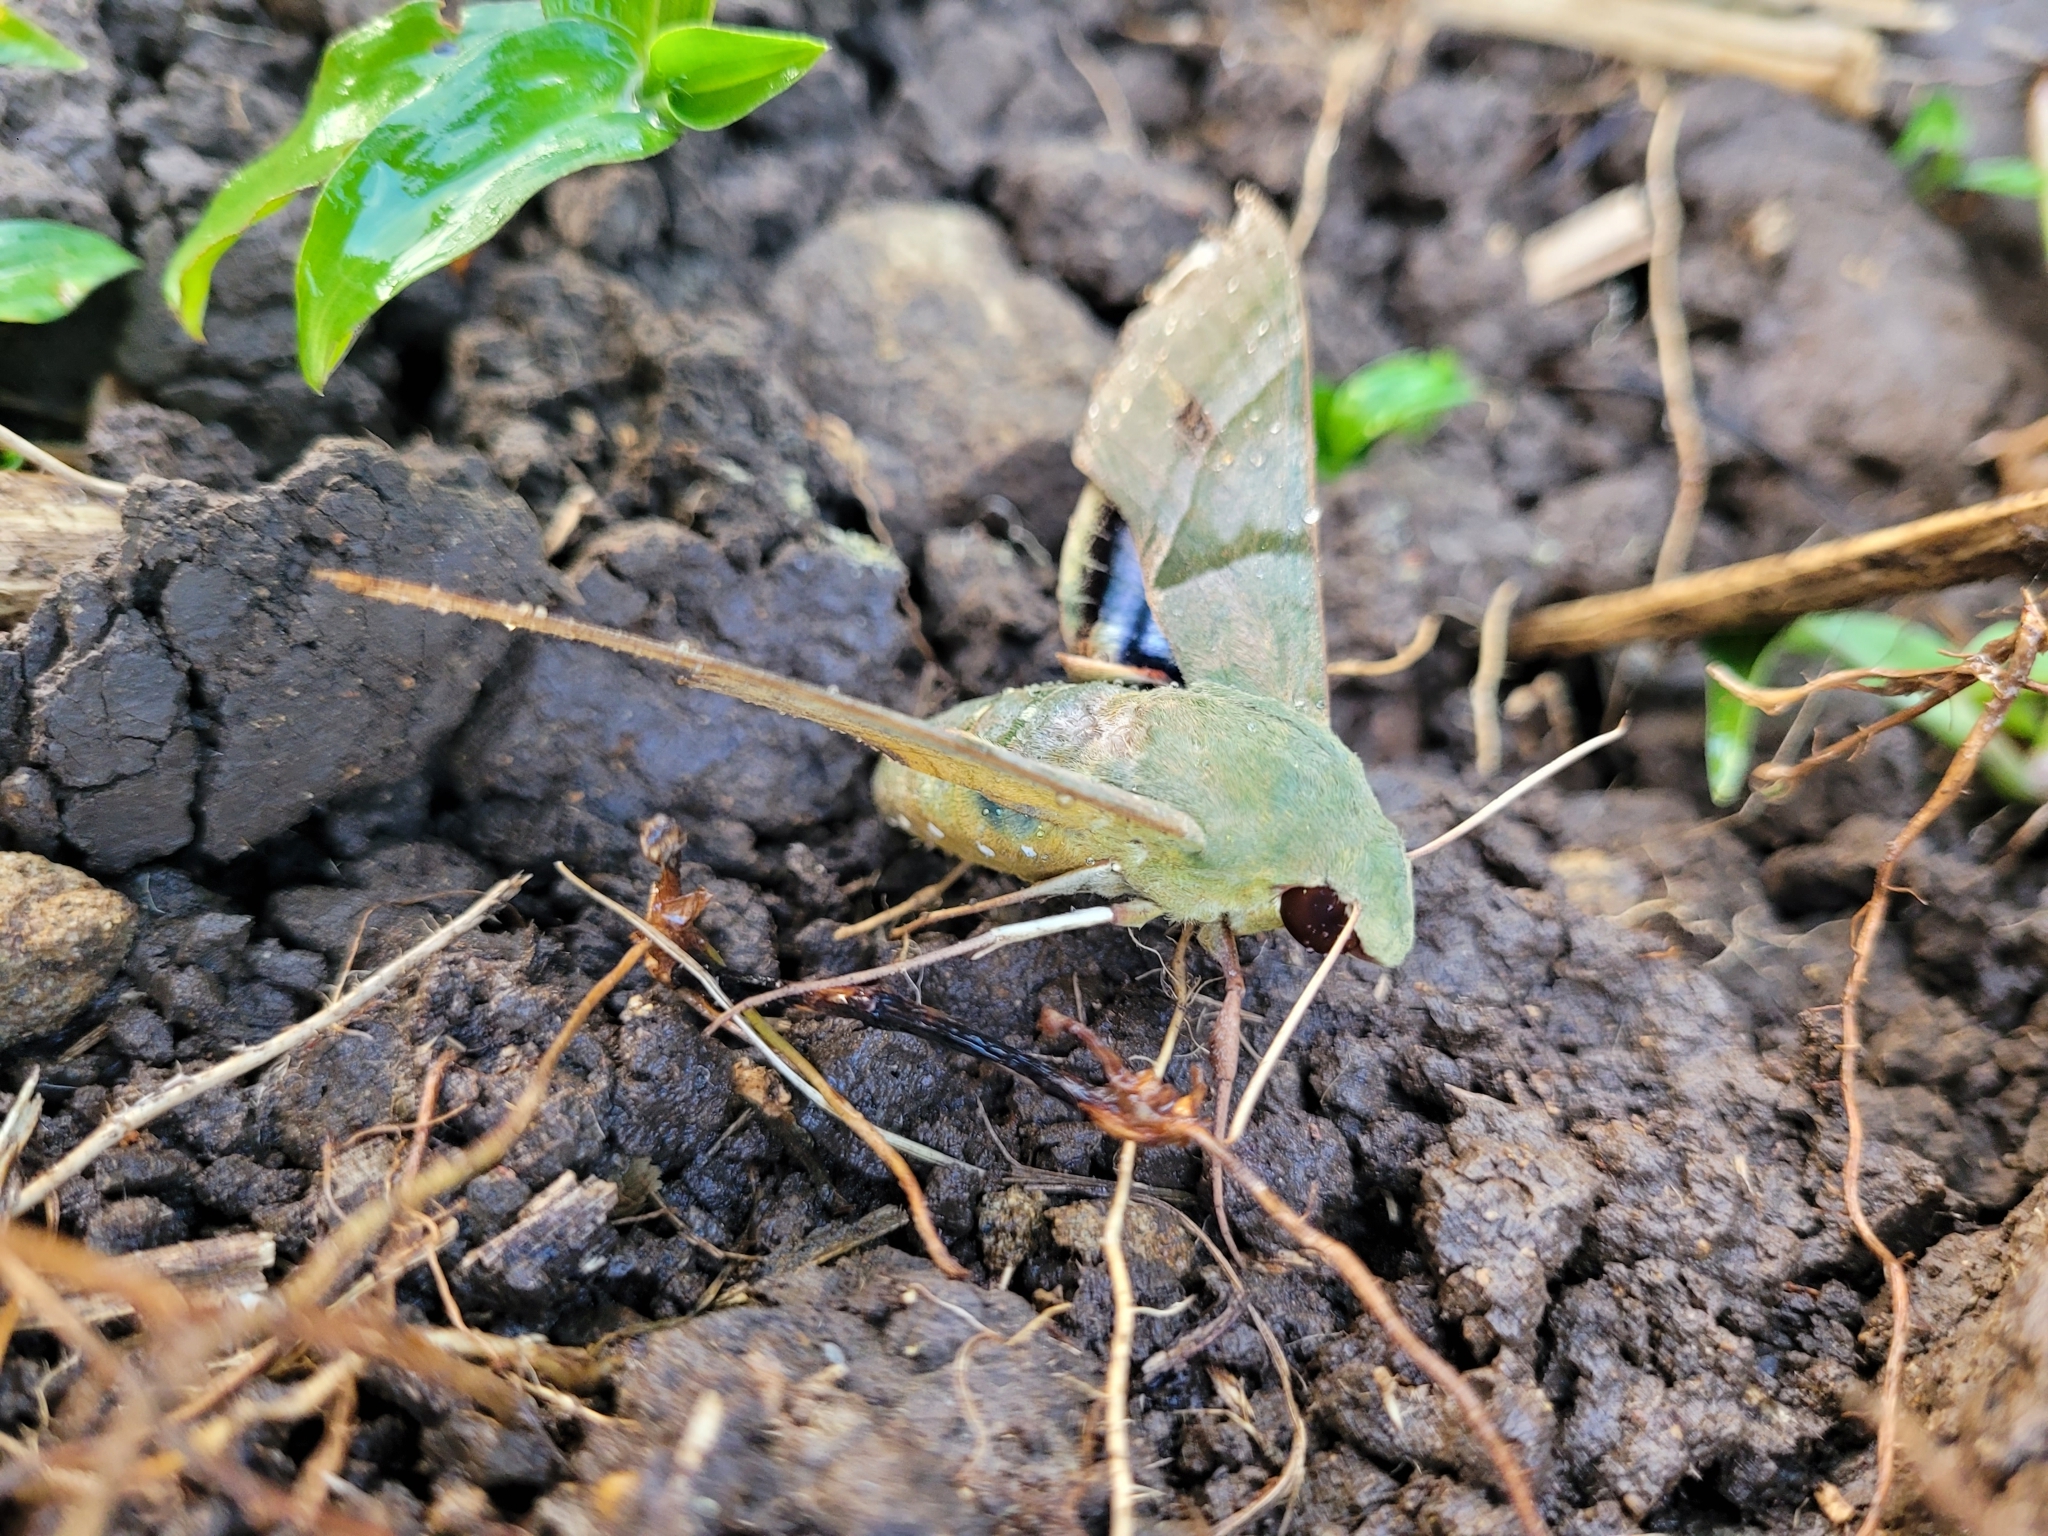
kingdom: Animalia
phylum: Arthropoda
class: Insecta
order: Lepidoptera
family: Sphingidae
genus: Eumorpha
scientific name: Eumorpha labruscae
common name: Gaudy sphinx
